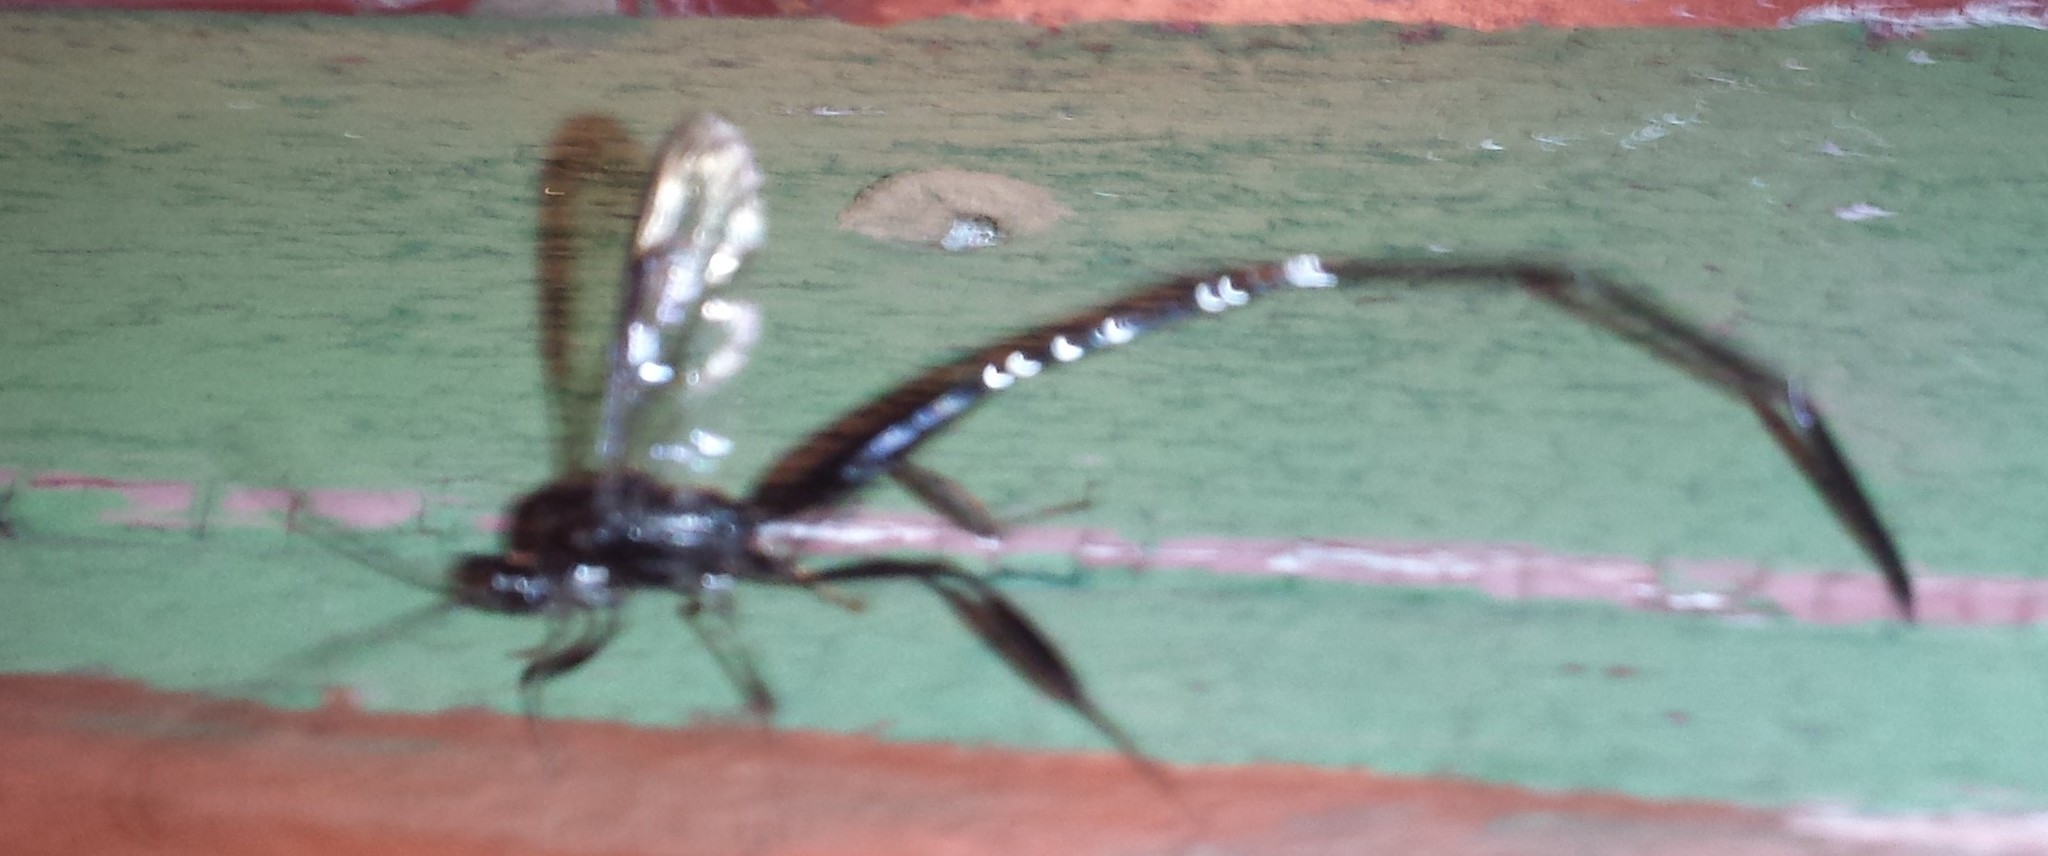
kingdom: Animalia
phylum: Arthropoda
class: Insecta
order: Hymenoptera
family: Pelecinidae
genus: Pelecinus
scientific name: Pelecinus polyturator
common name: American pelecinid wasp
